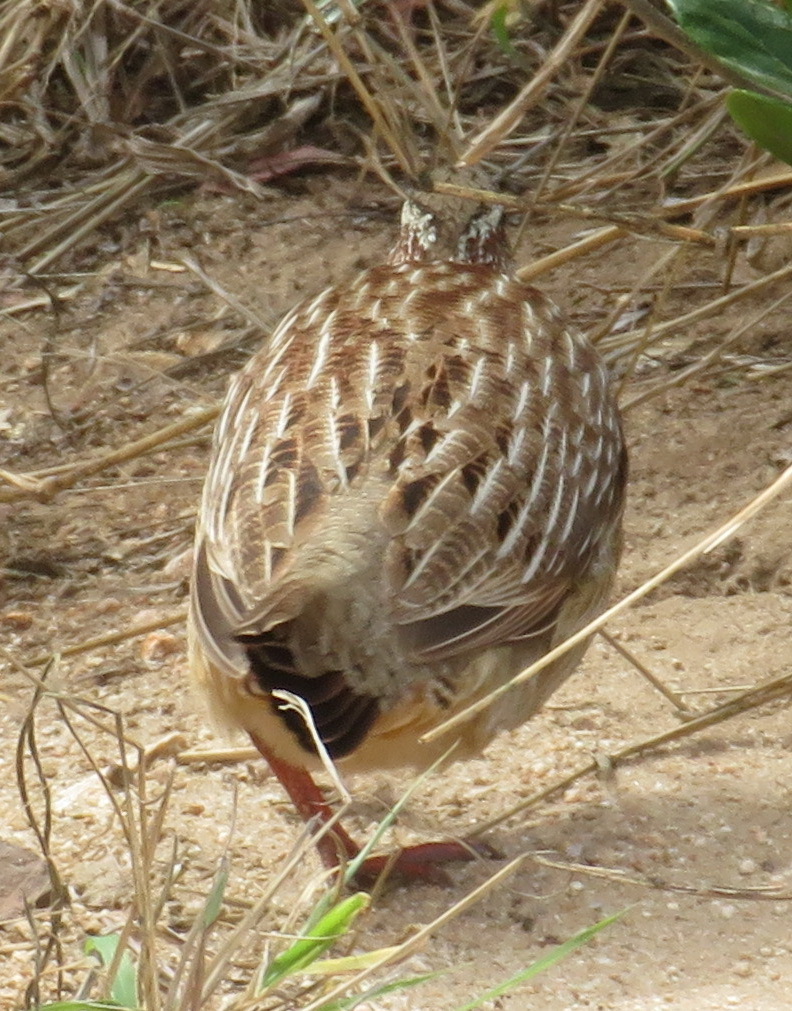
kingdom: Animalia
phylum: Chordata
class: Aves
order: Galliformes
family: Phasianidae
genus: Ortygornis
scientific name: Ortygornis sephaena
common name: Crested francolin
